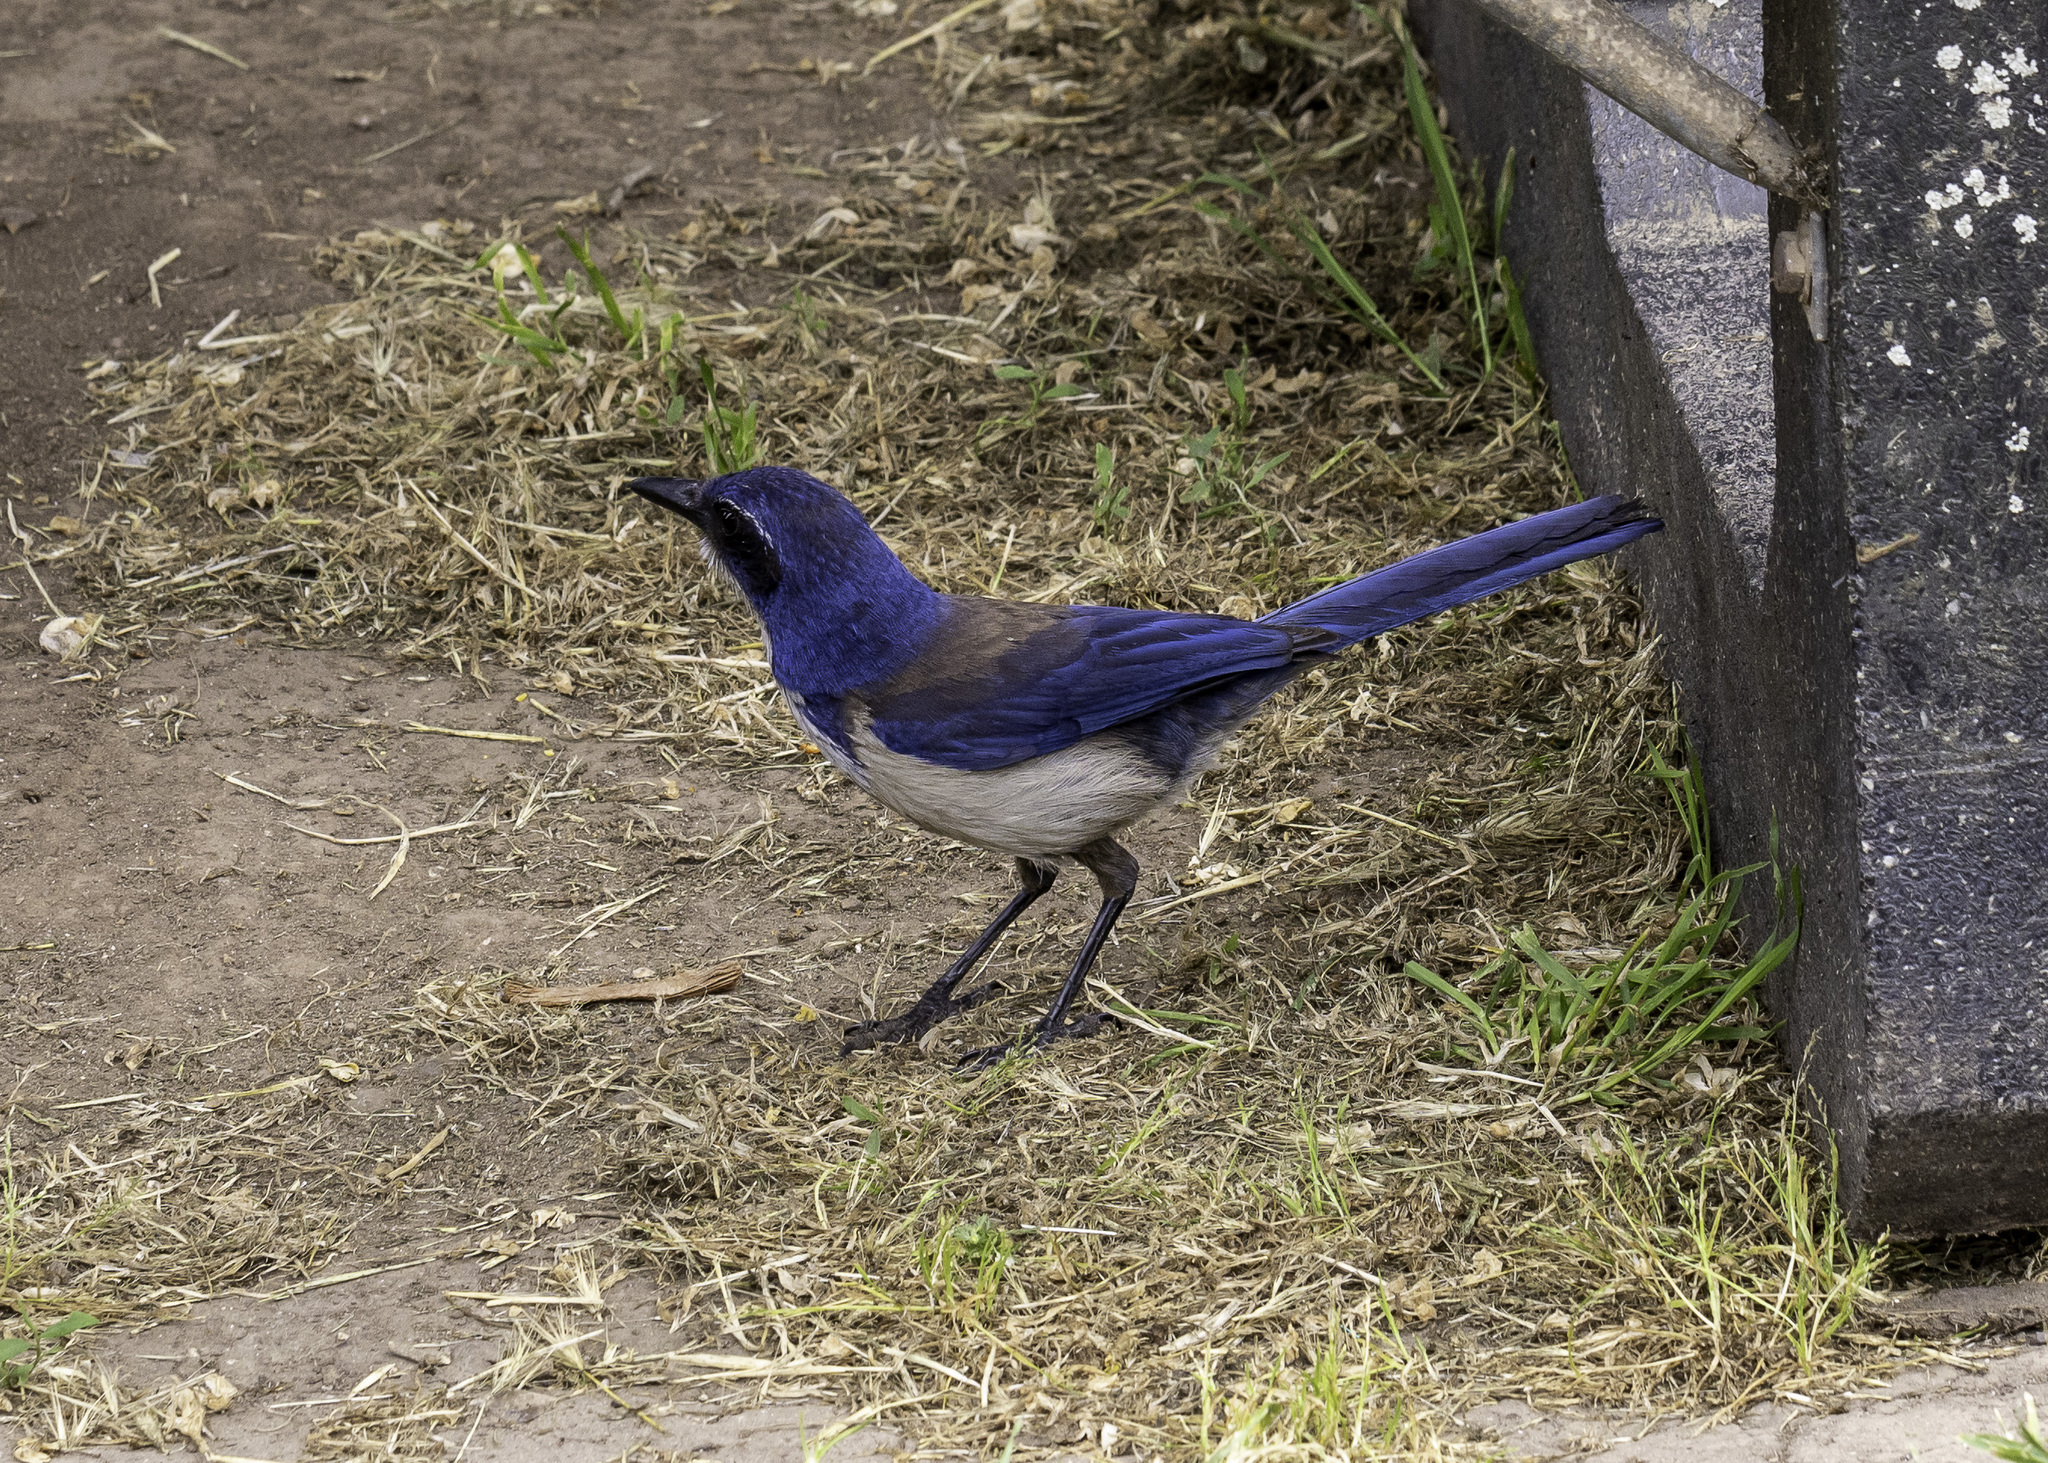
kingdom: Animalia
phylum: Chordata
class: Aves
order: Passeriformes
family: Corvidae
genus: Aphelocoma
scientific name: Aphelocoma insularis
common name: Island scrub-jay
